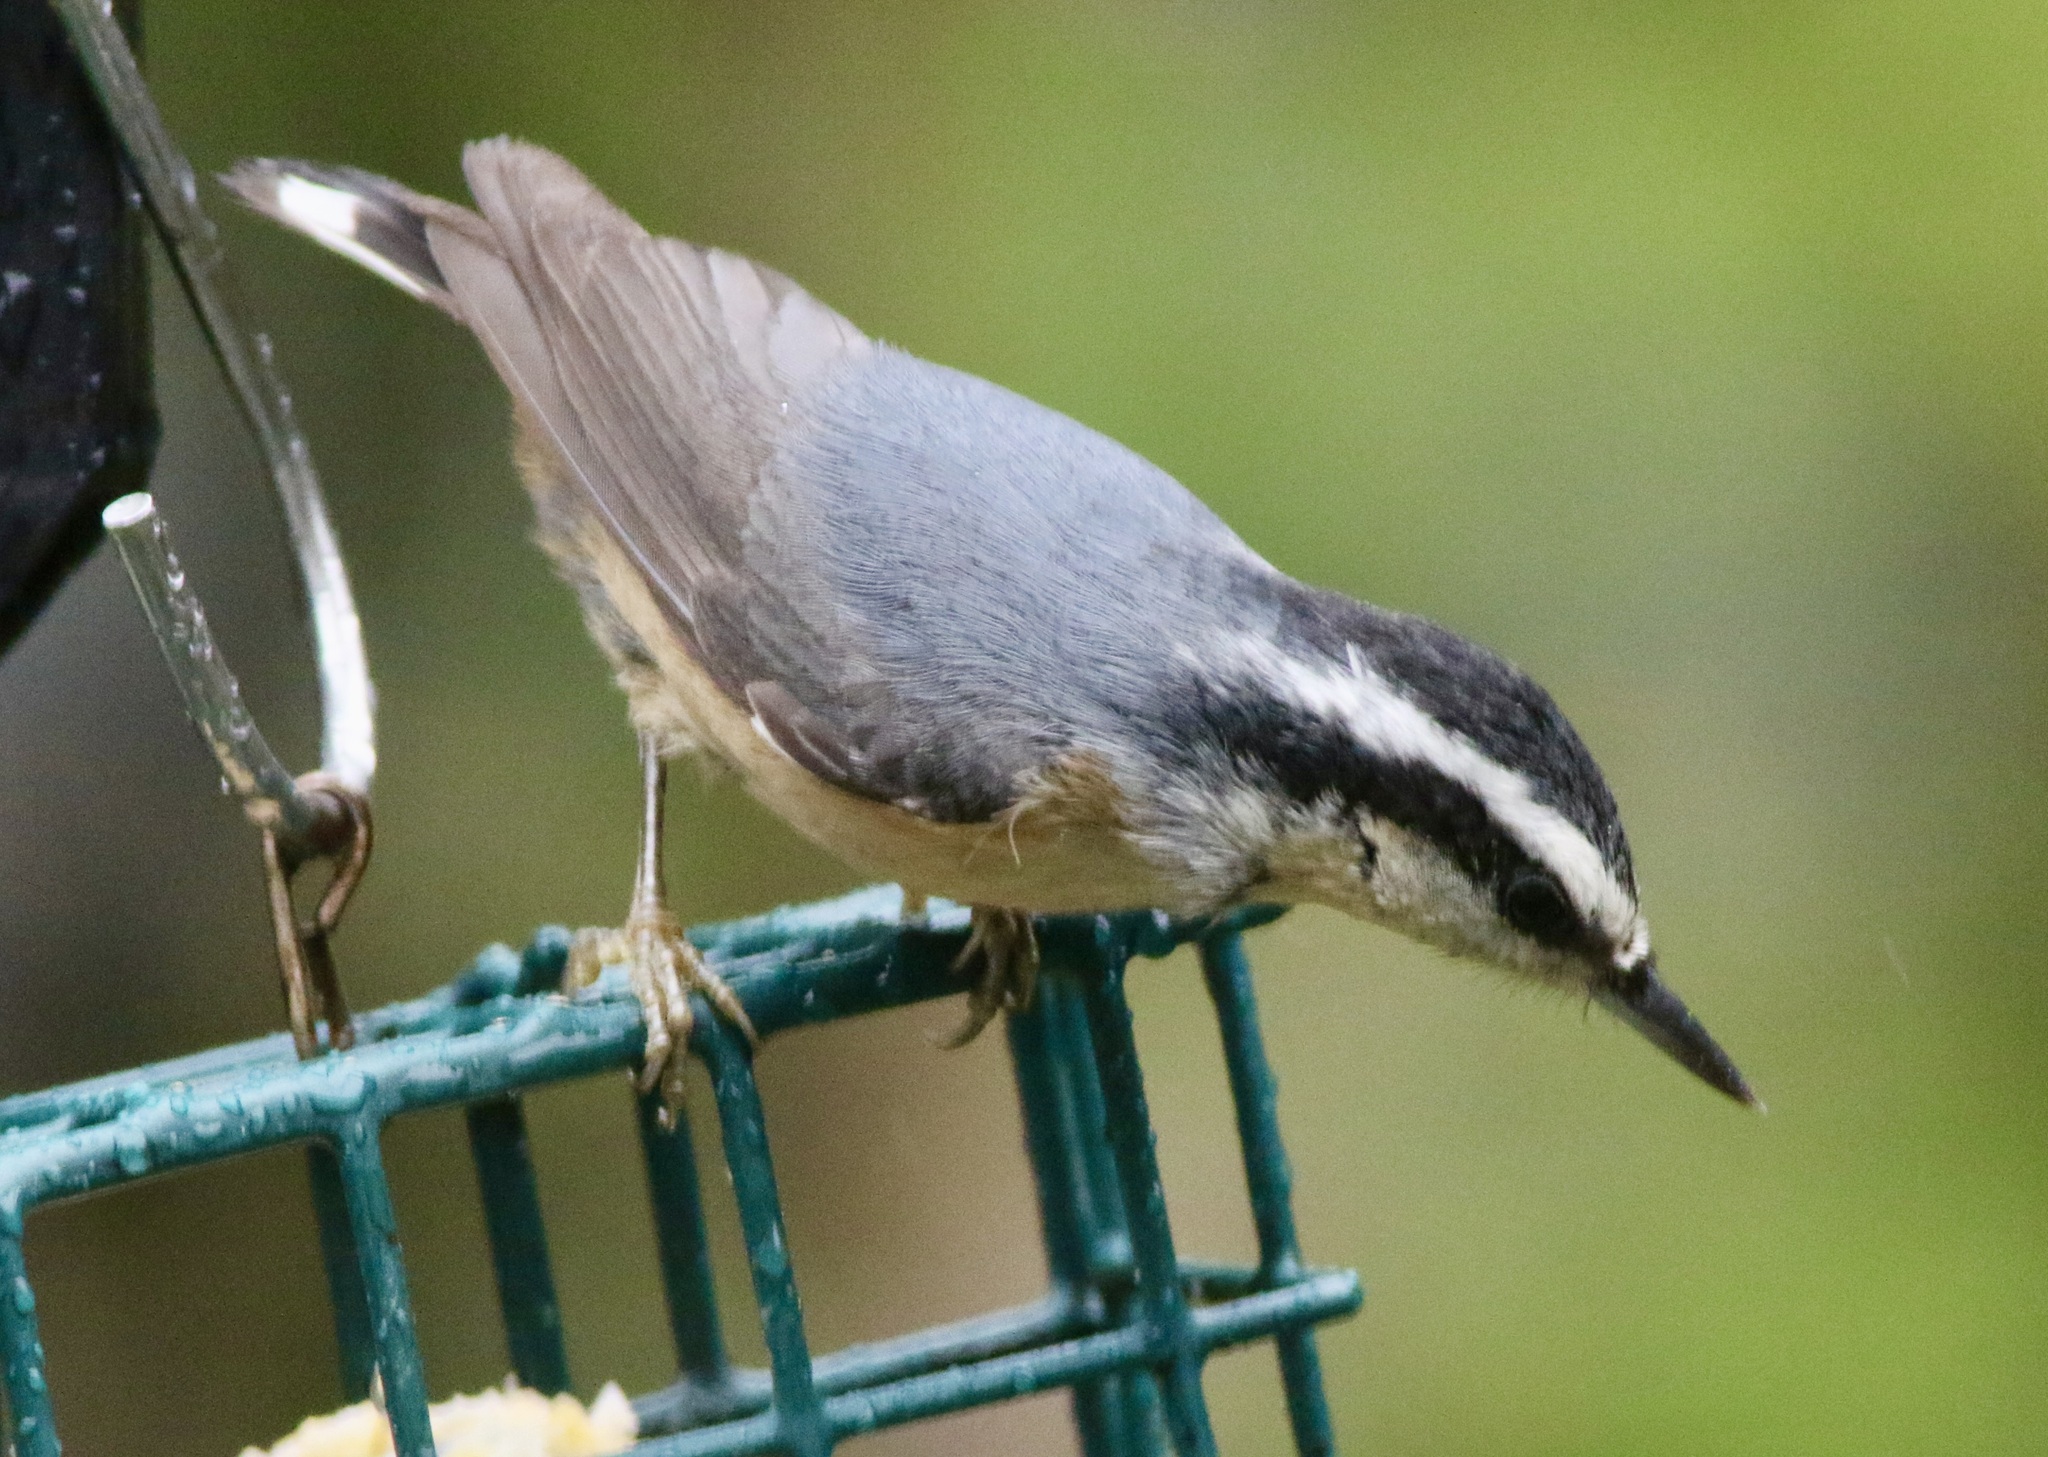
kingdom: Animalia
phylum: Chordata
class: Aves
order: Passeriformes
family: Sittidae
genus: Sitta
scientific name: Sitta canadensis
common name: Red-breasted nuthatch
